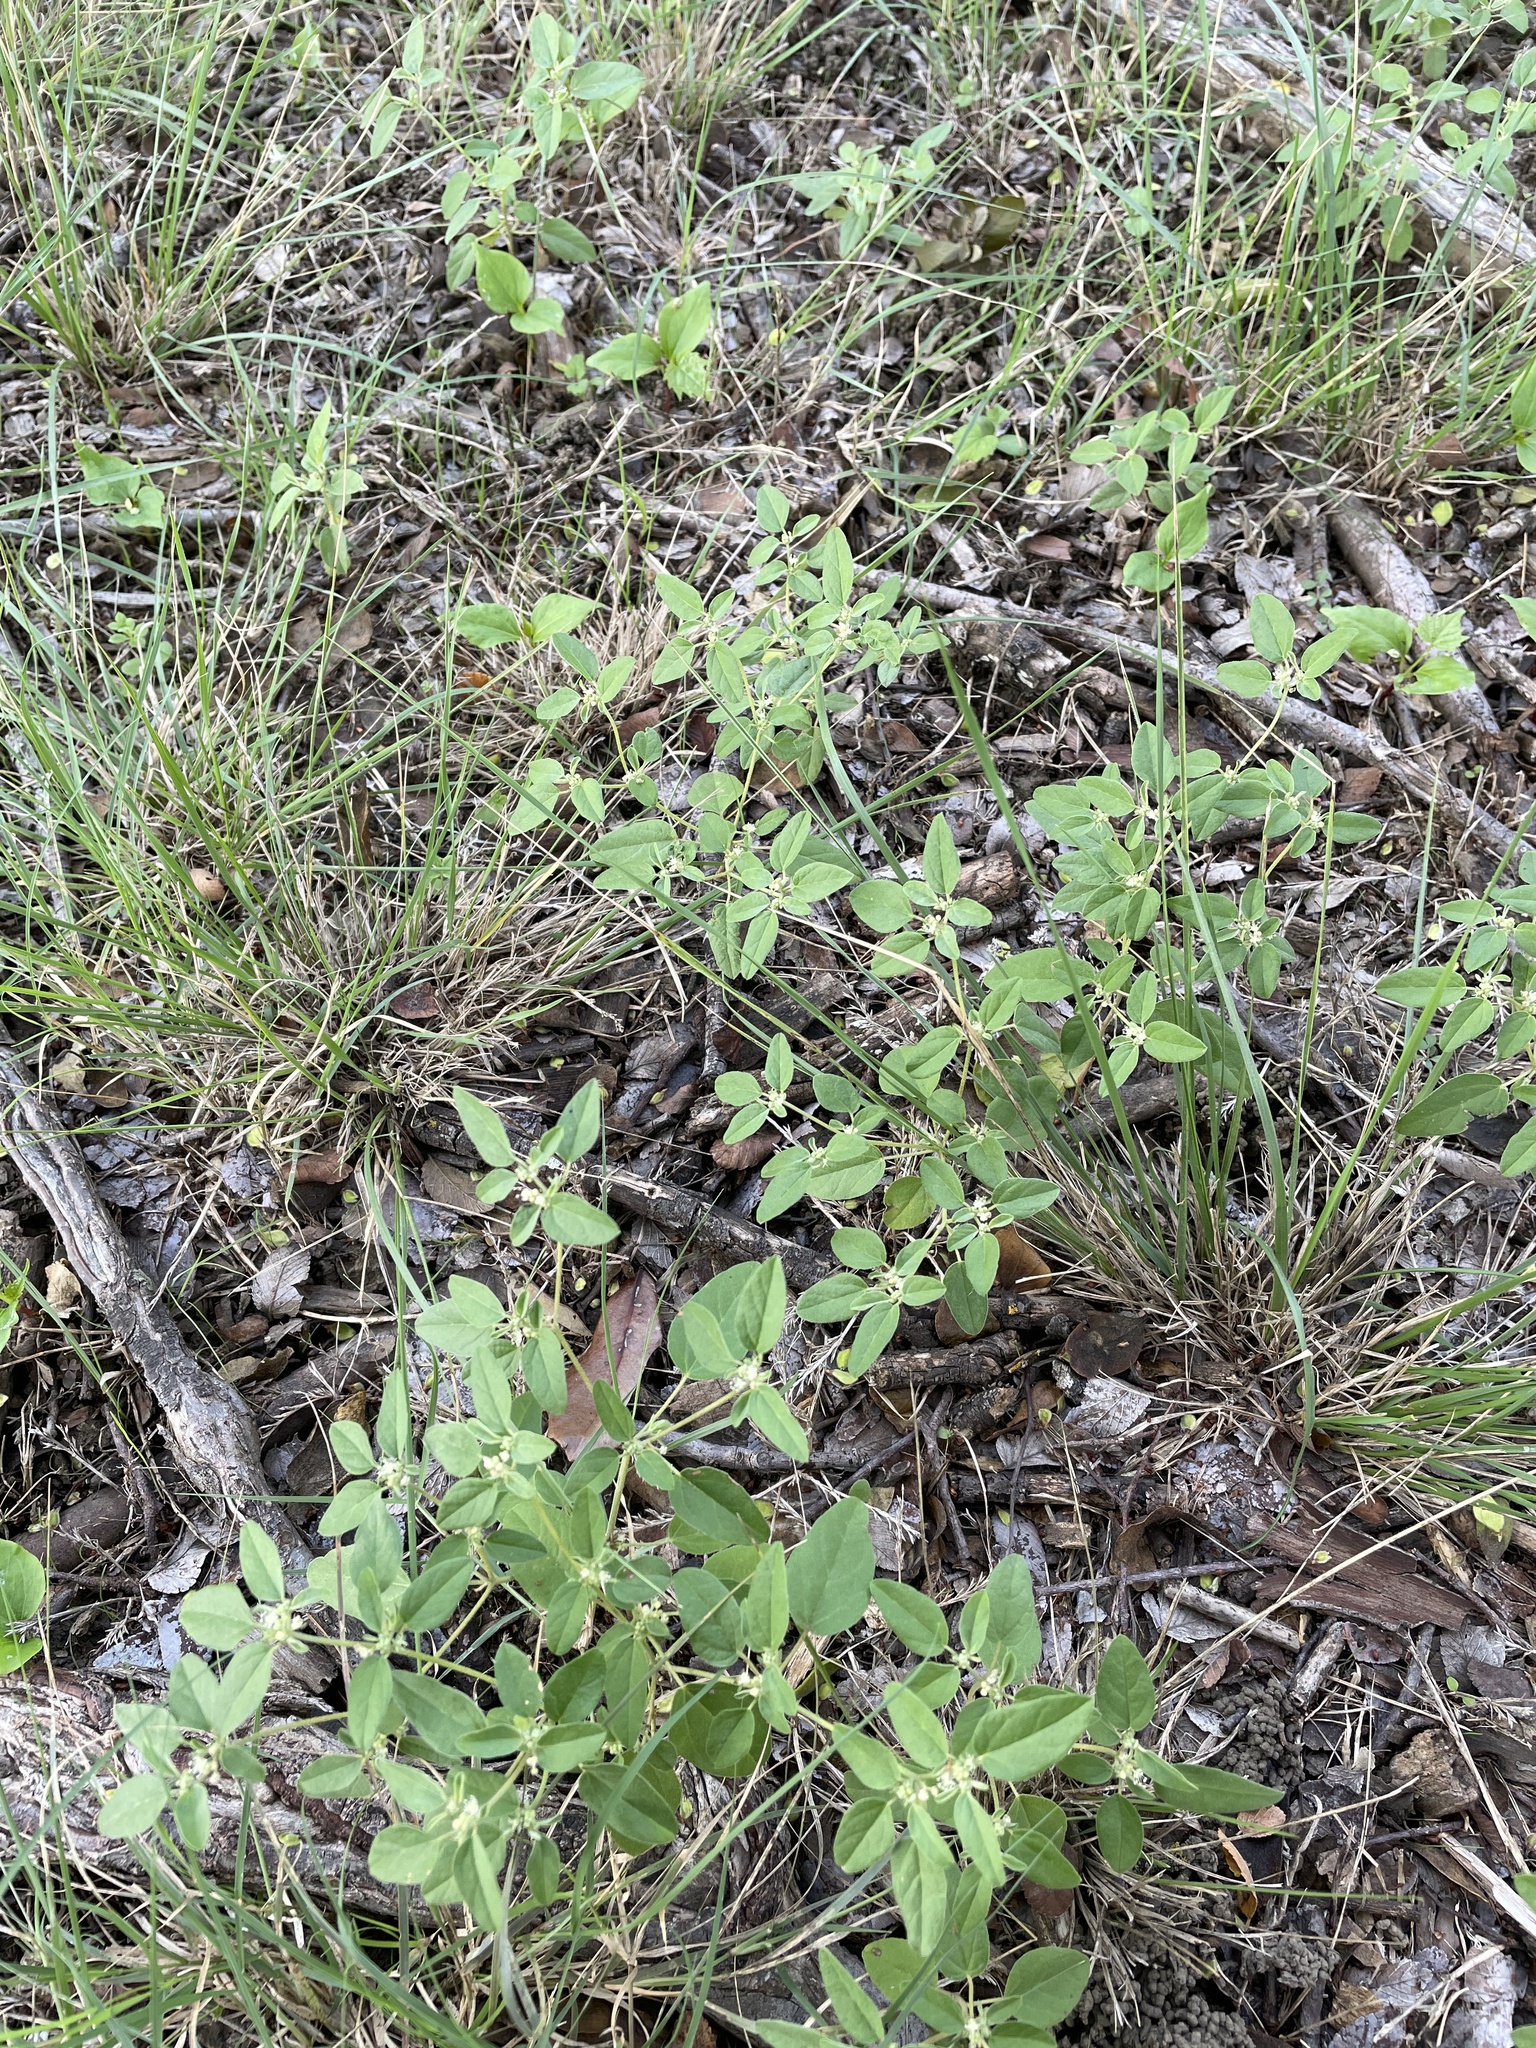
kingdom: Plantae
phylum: Tracheophyta
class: Magnoliopsida
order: Malpighiales
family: Euphorbiaceae
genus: Croton
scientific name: Croton monanthogynus
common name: One-seed croton
